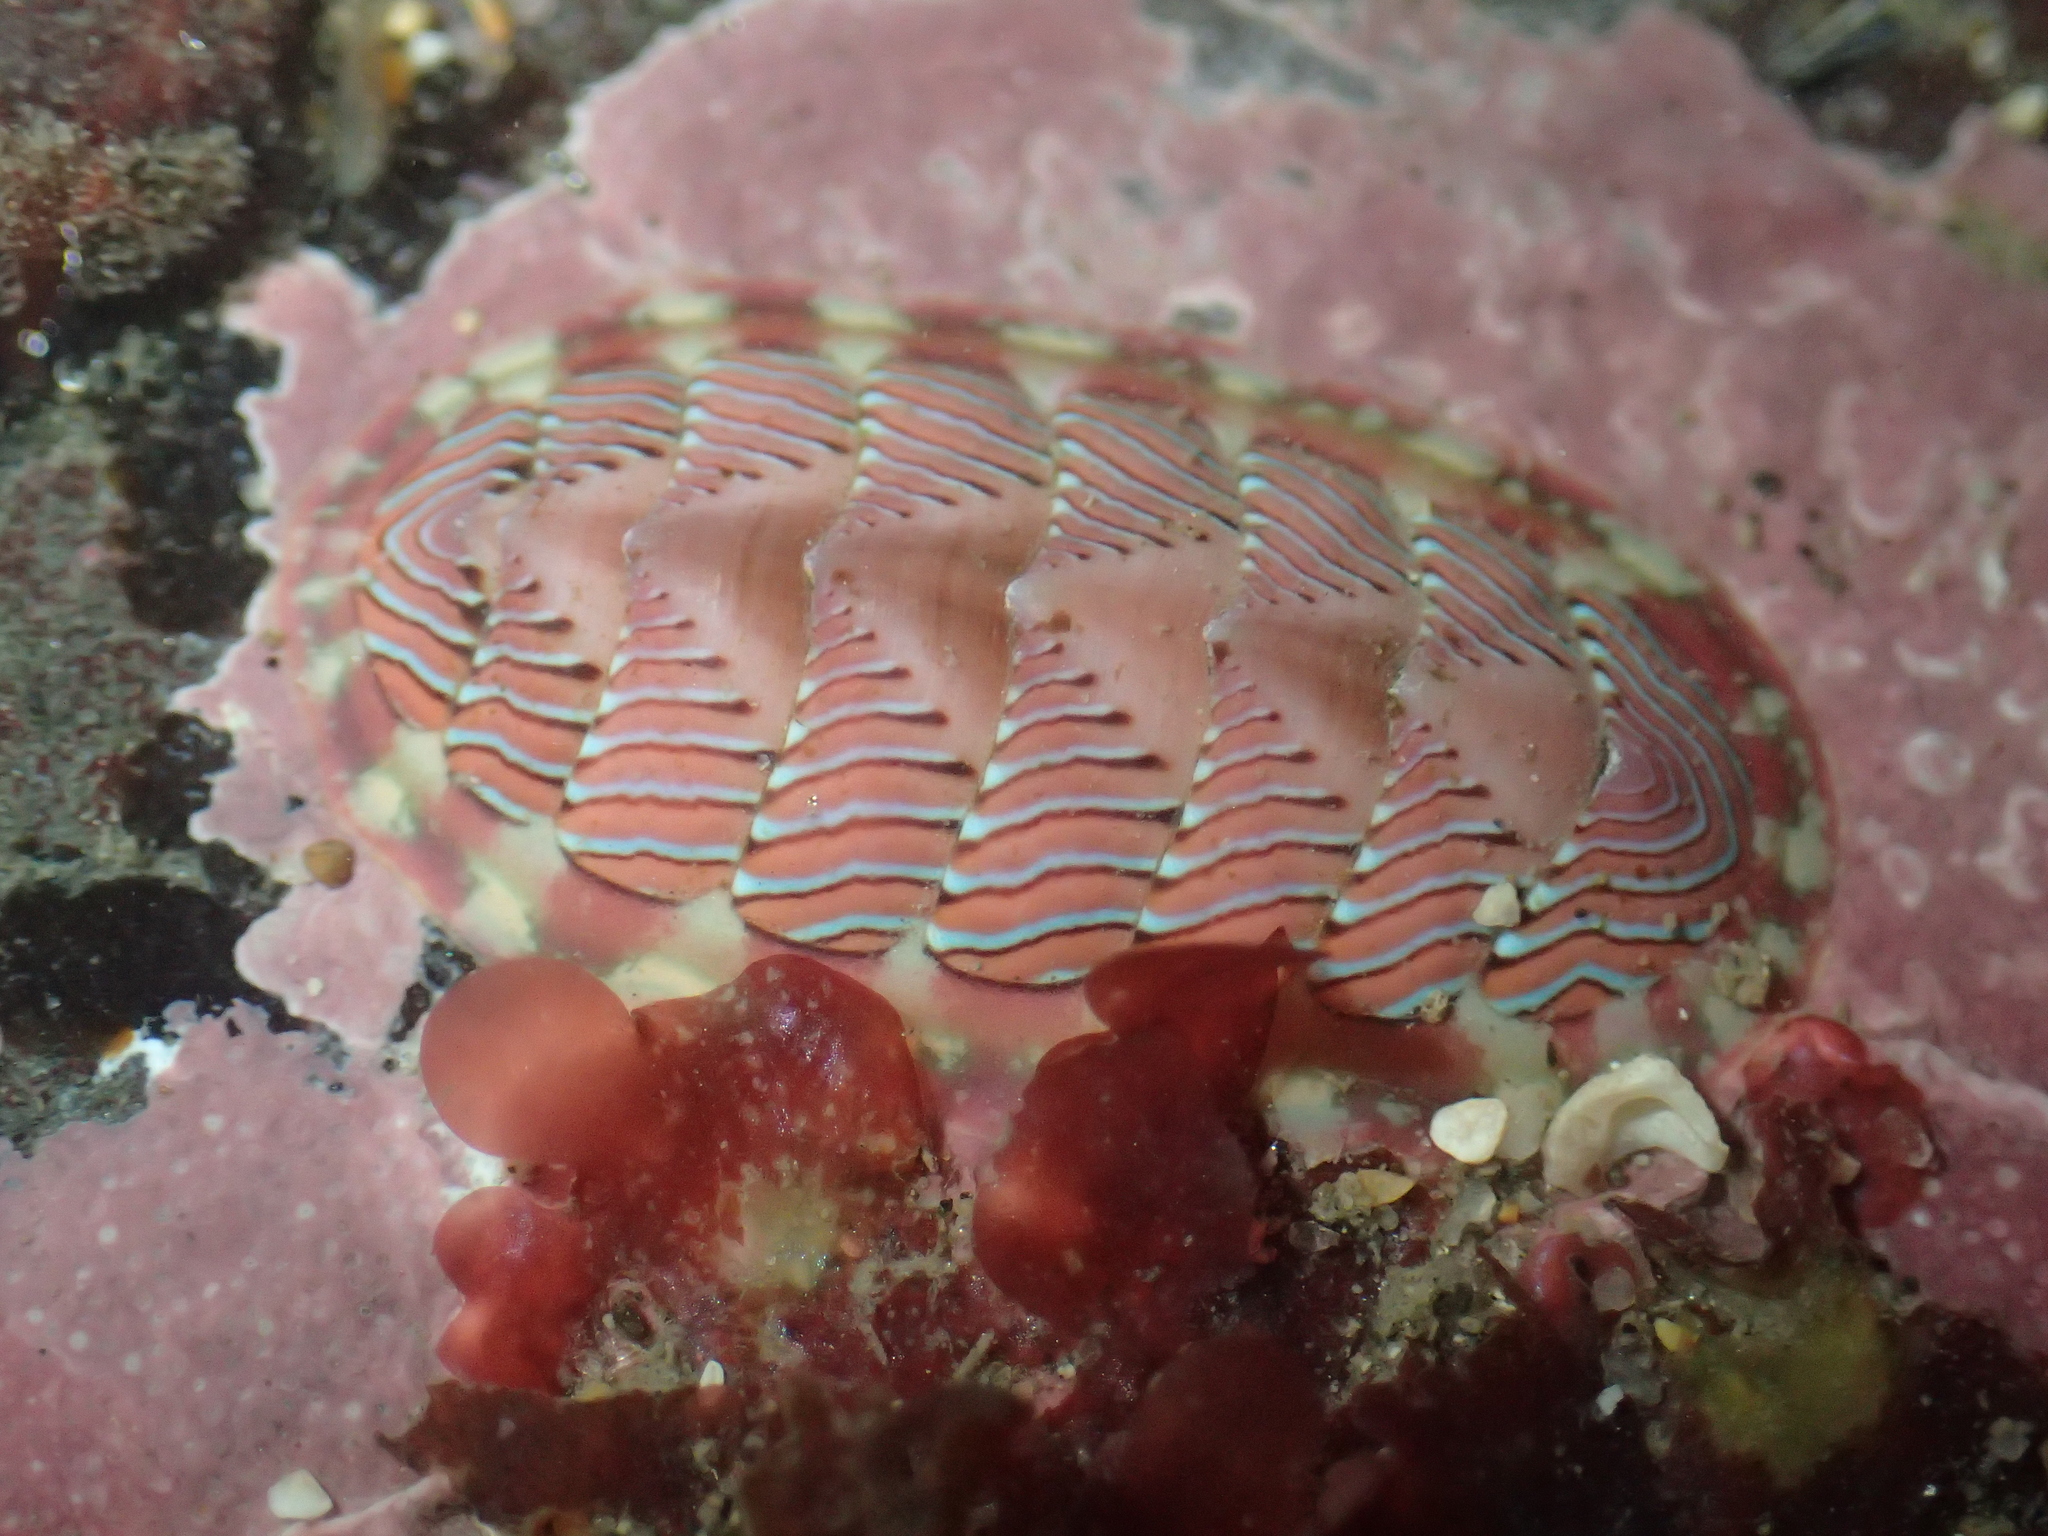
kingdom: Animalia
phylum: Mollusca
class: Polyplacophora
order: Chitonida
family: Tonicellidae
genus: Tonicella
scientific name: Tonicella lineata
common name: Lined chiton
